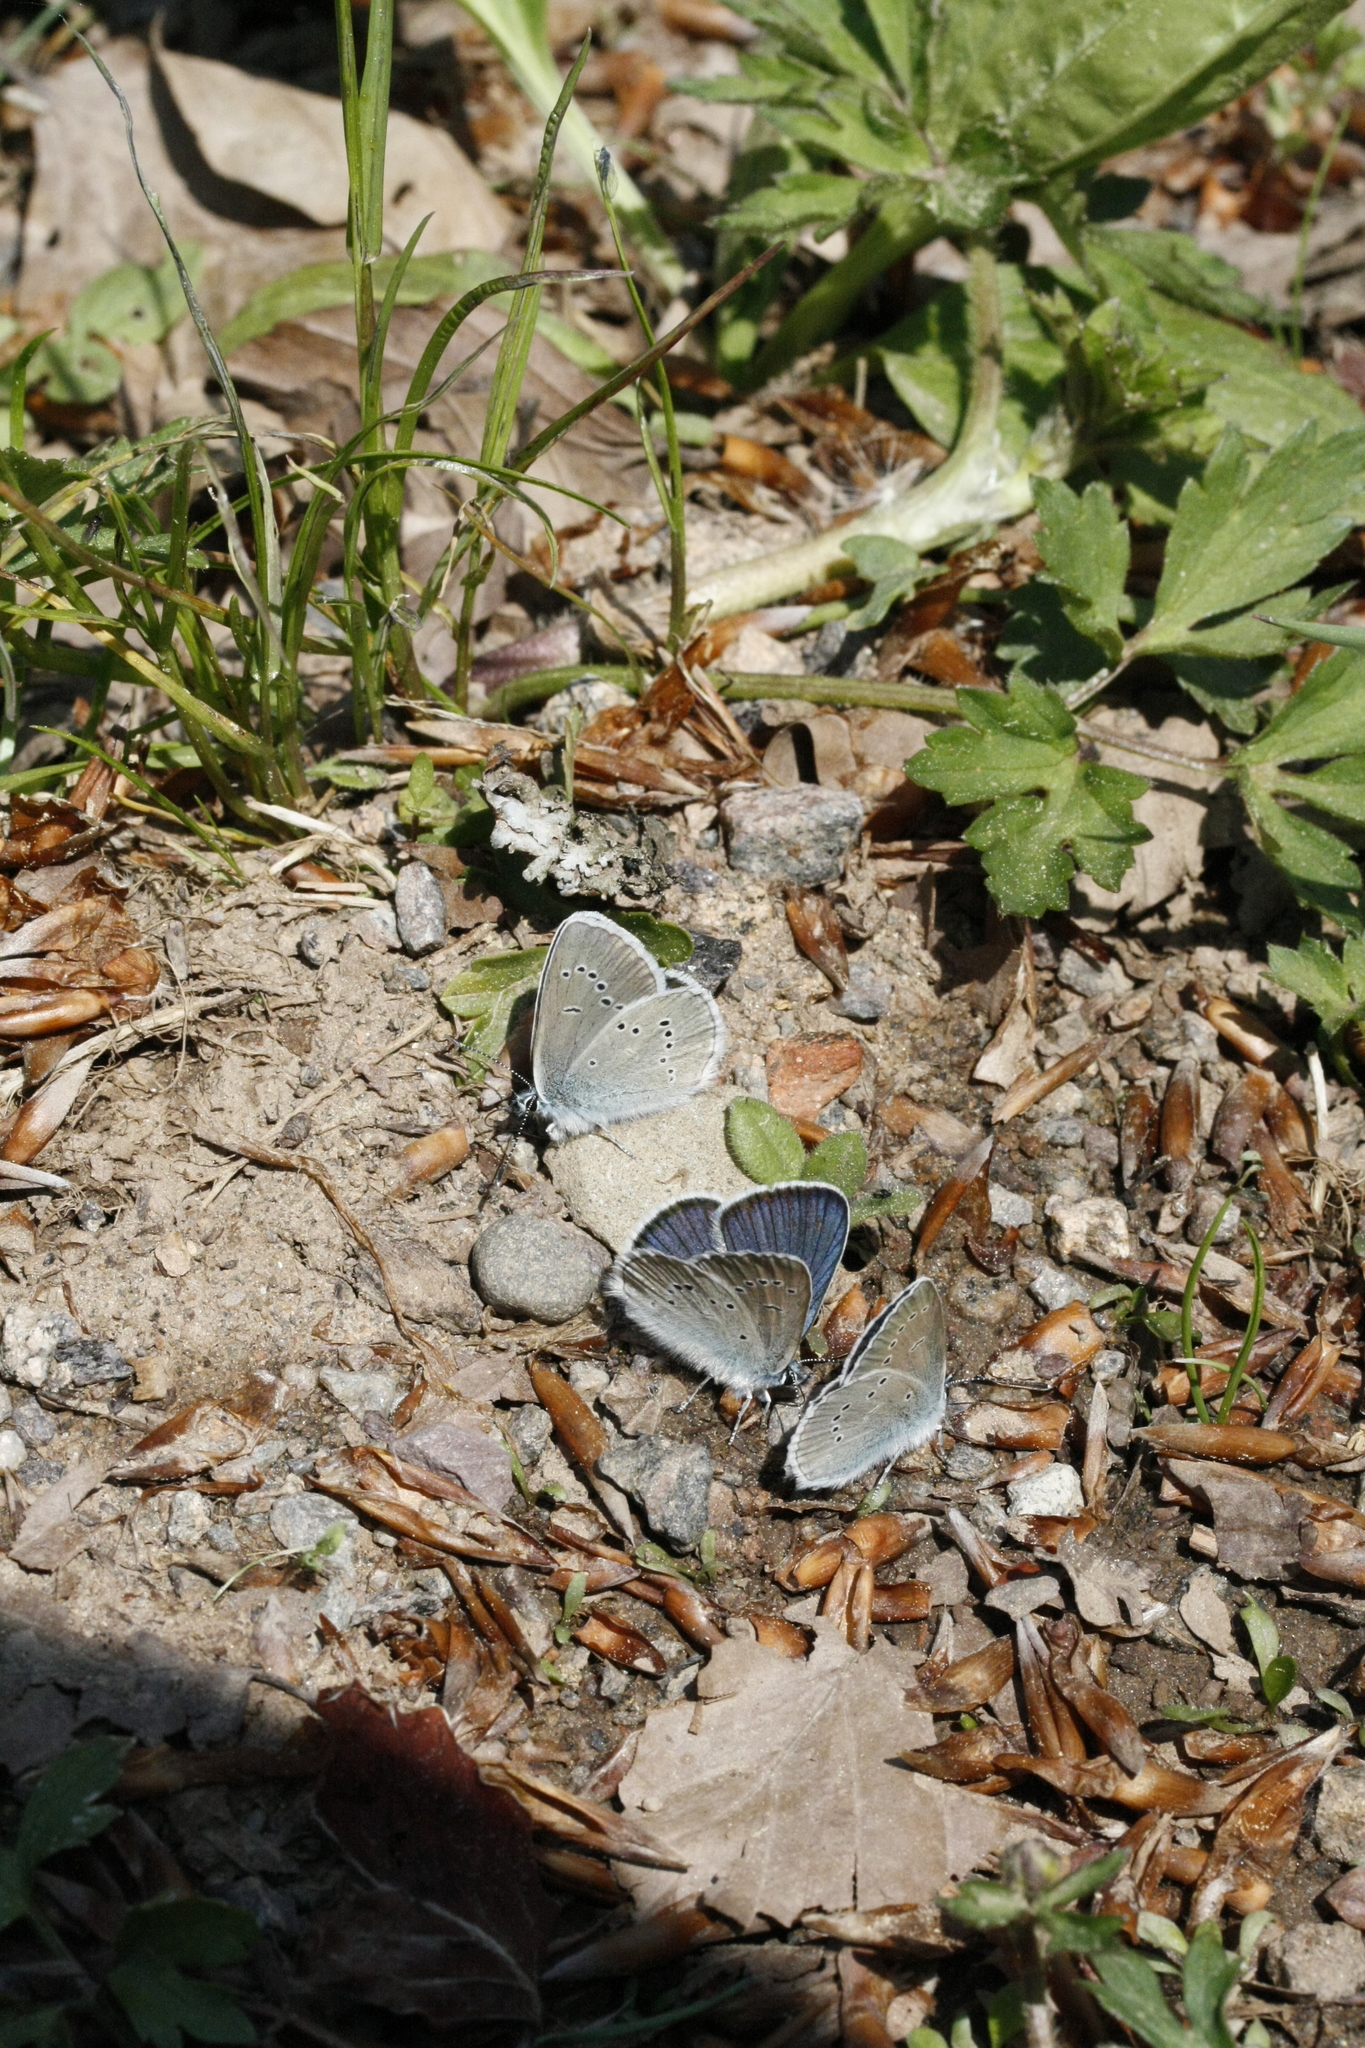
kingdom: Animalia
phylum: Arthropoda
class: Insecta
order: Lepidoptera
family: Lycaenidae
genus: Cyaniris
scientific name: Cyaniris semiargus
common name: Mazarine blue
